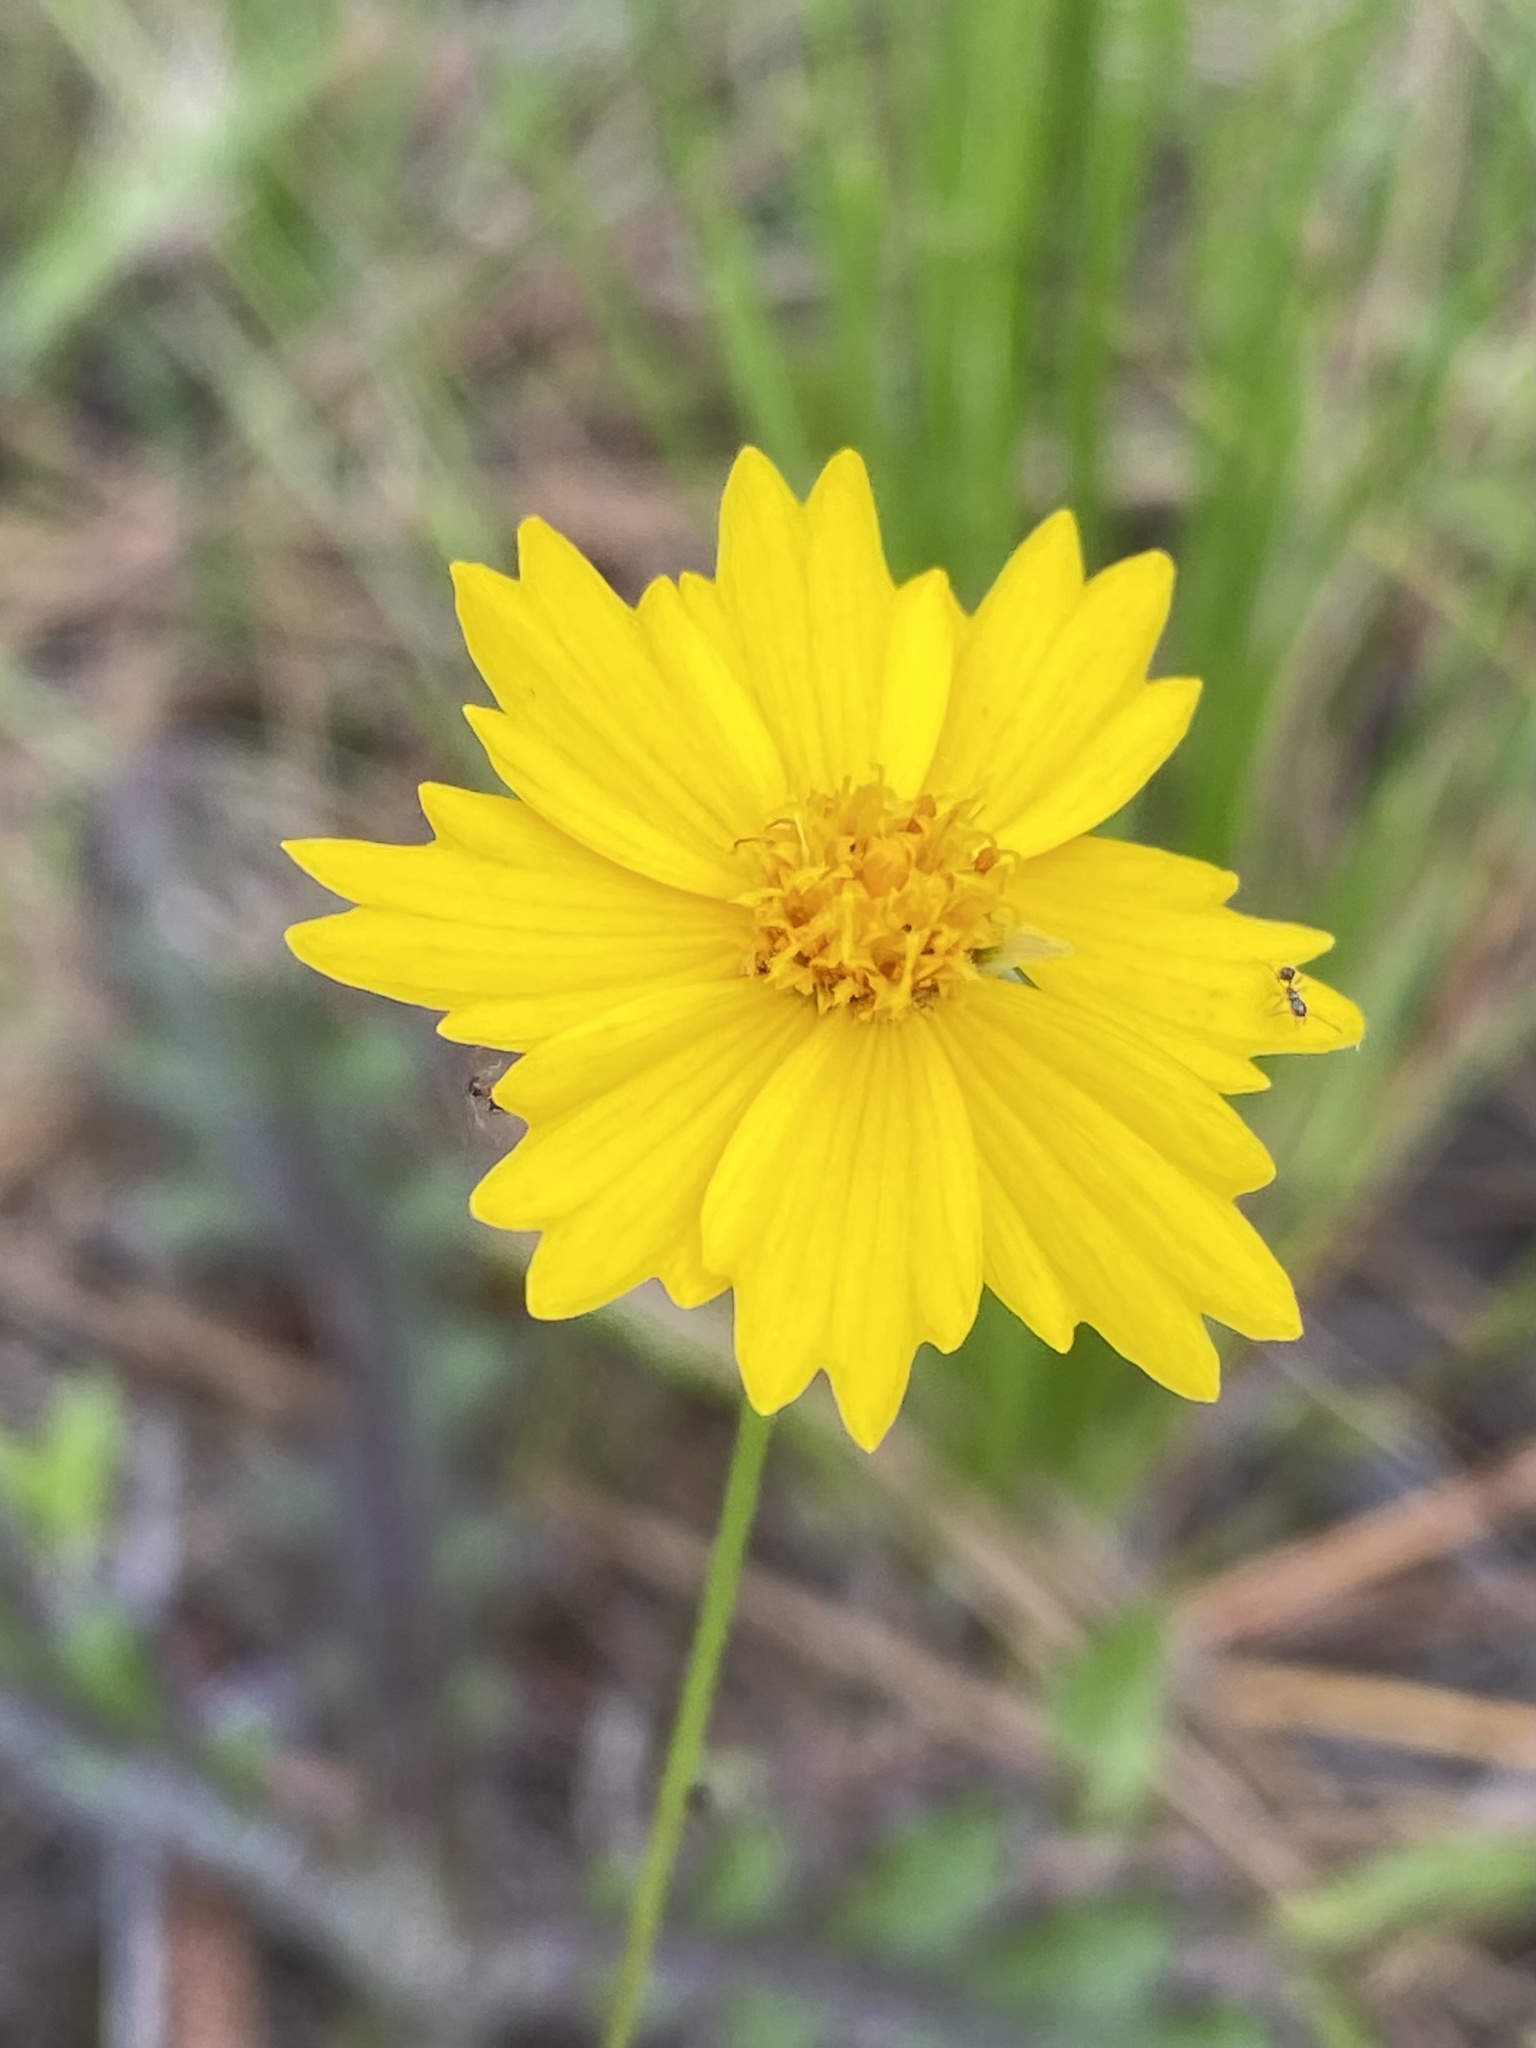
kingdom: Plantae
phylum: Tracheophyta
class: Magnoliopsida
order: Asterales
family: Asteraceae
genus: Coreopsis
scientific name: Coreopsis lanceolata
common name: Garden coreopsis
